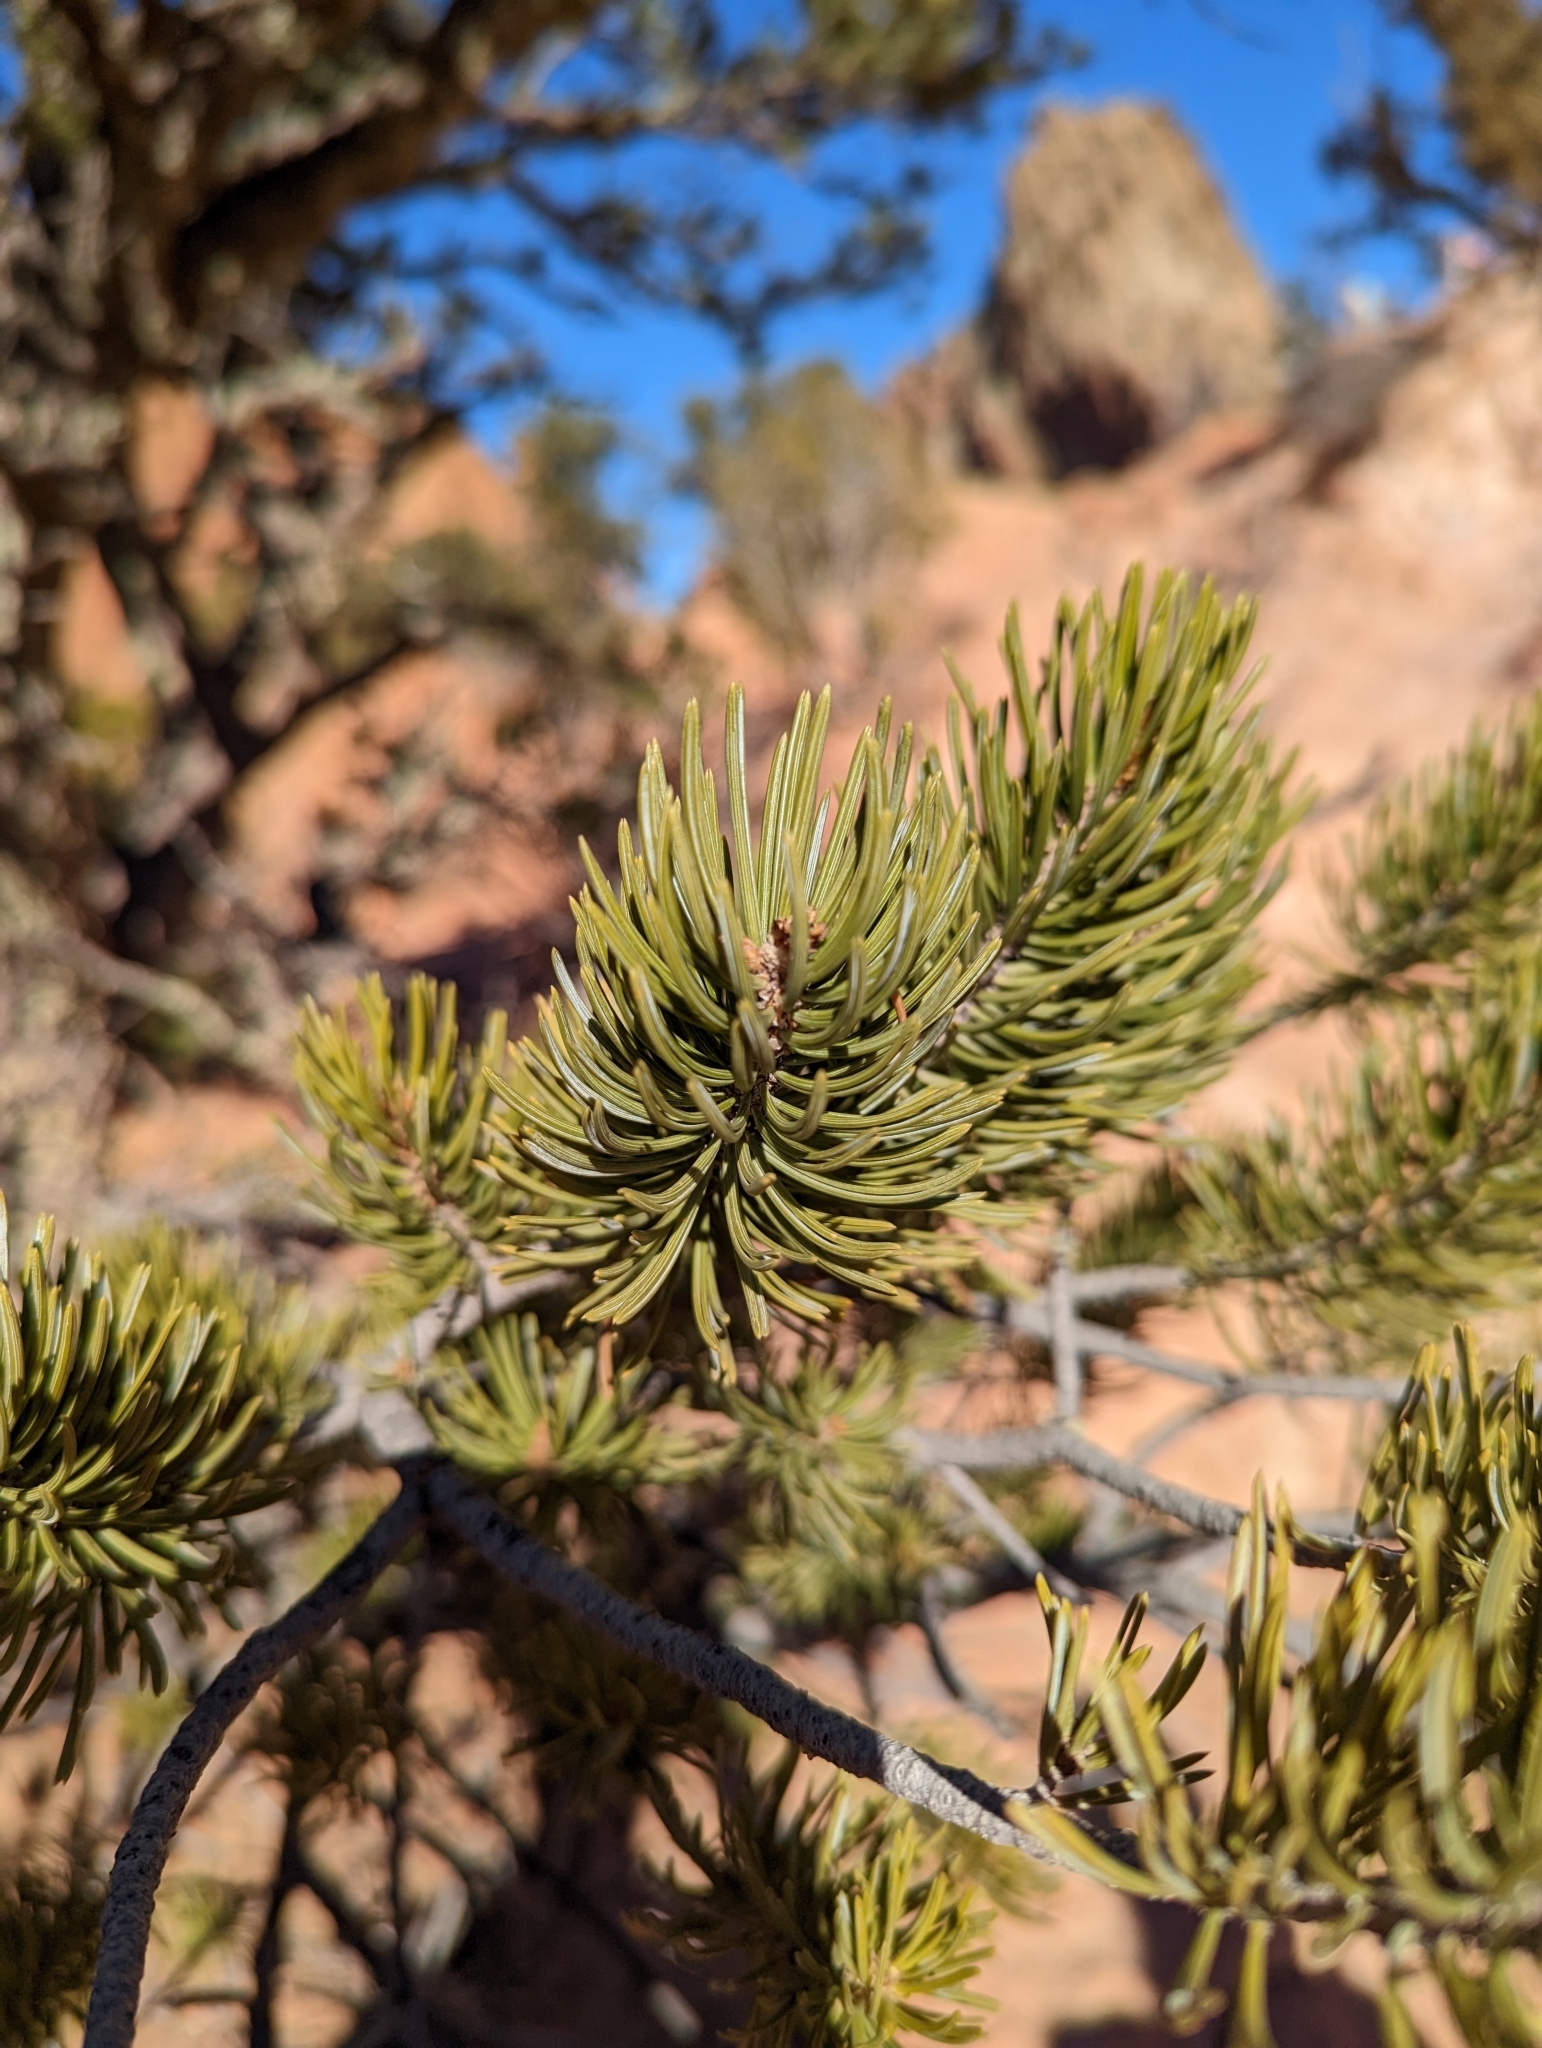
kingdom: Plantae
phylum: Tracheophyta
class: Pinopsida
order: Pinales
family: Pinaceae
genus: Pinus
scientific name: Pinus edulis
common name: Colorado pinyon
